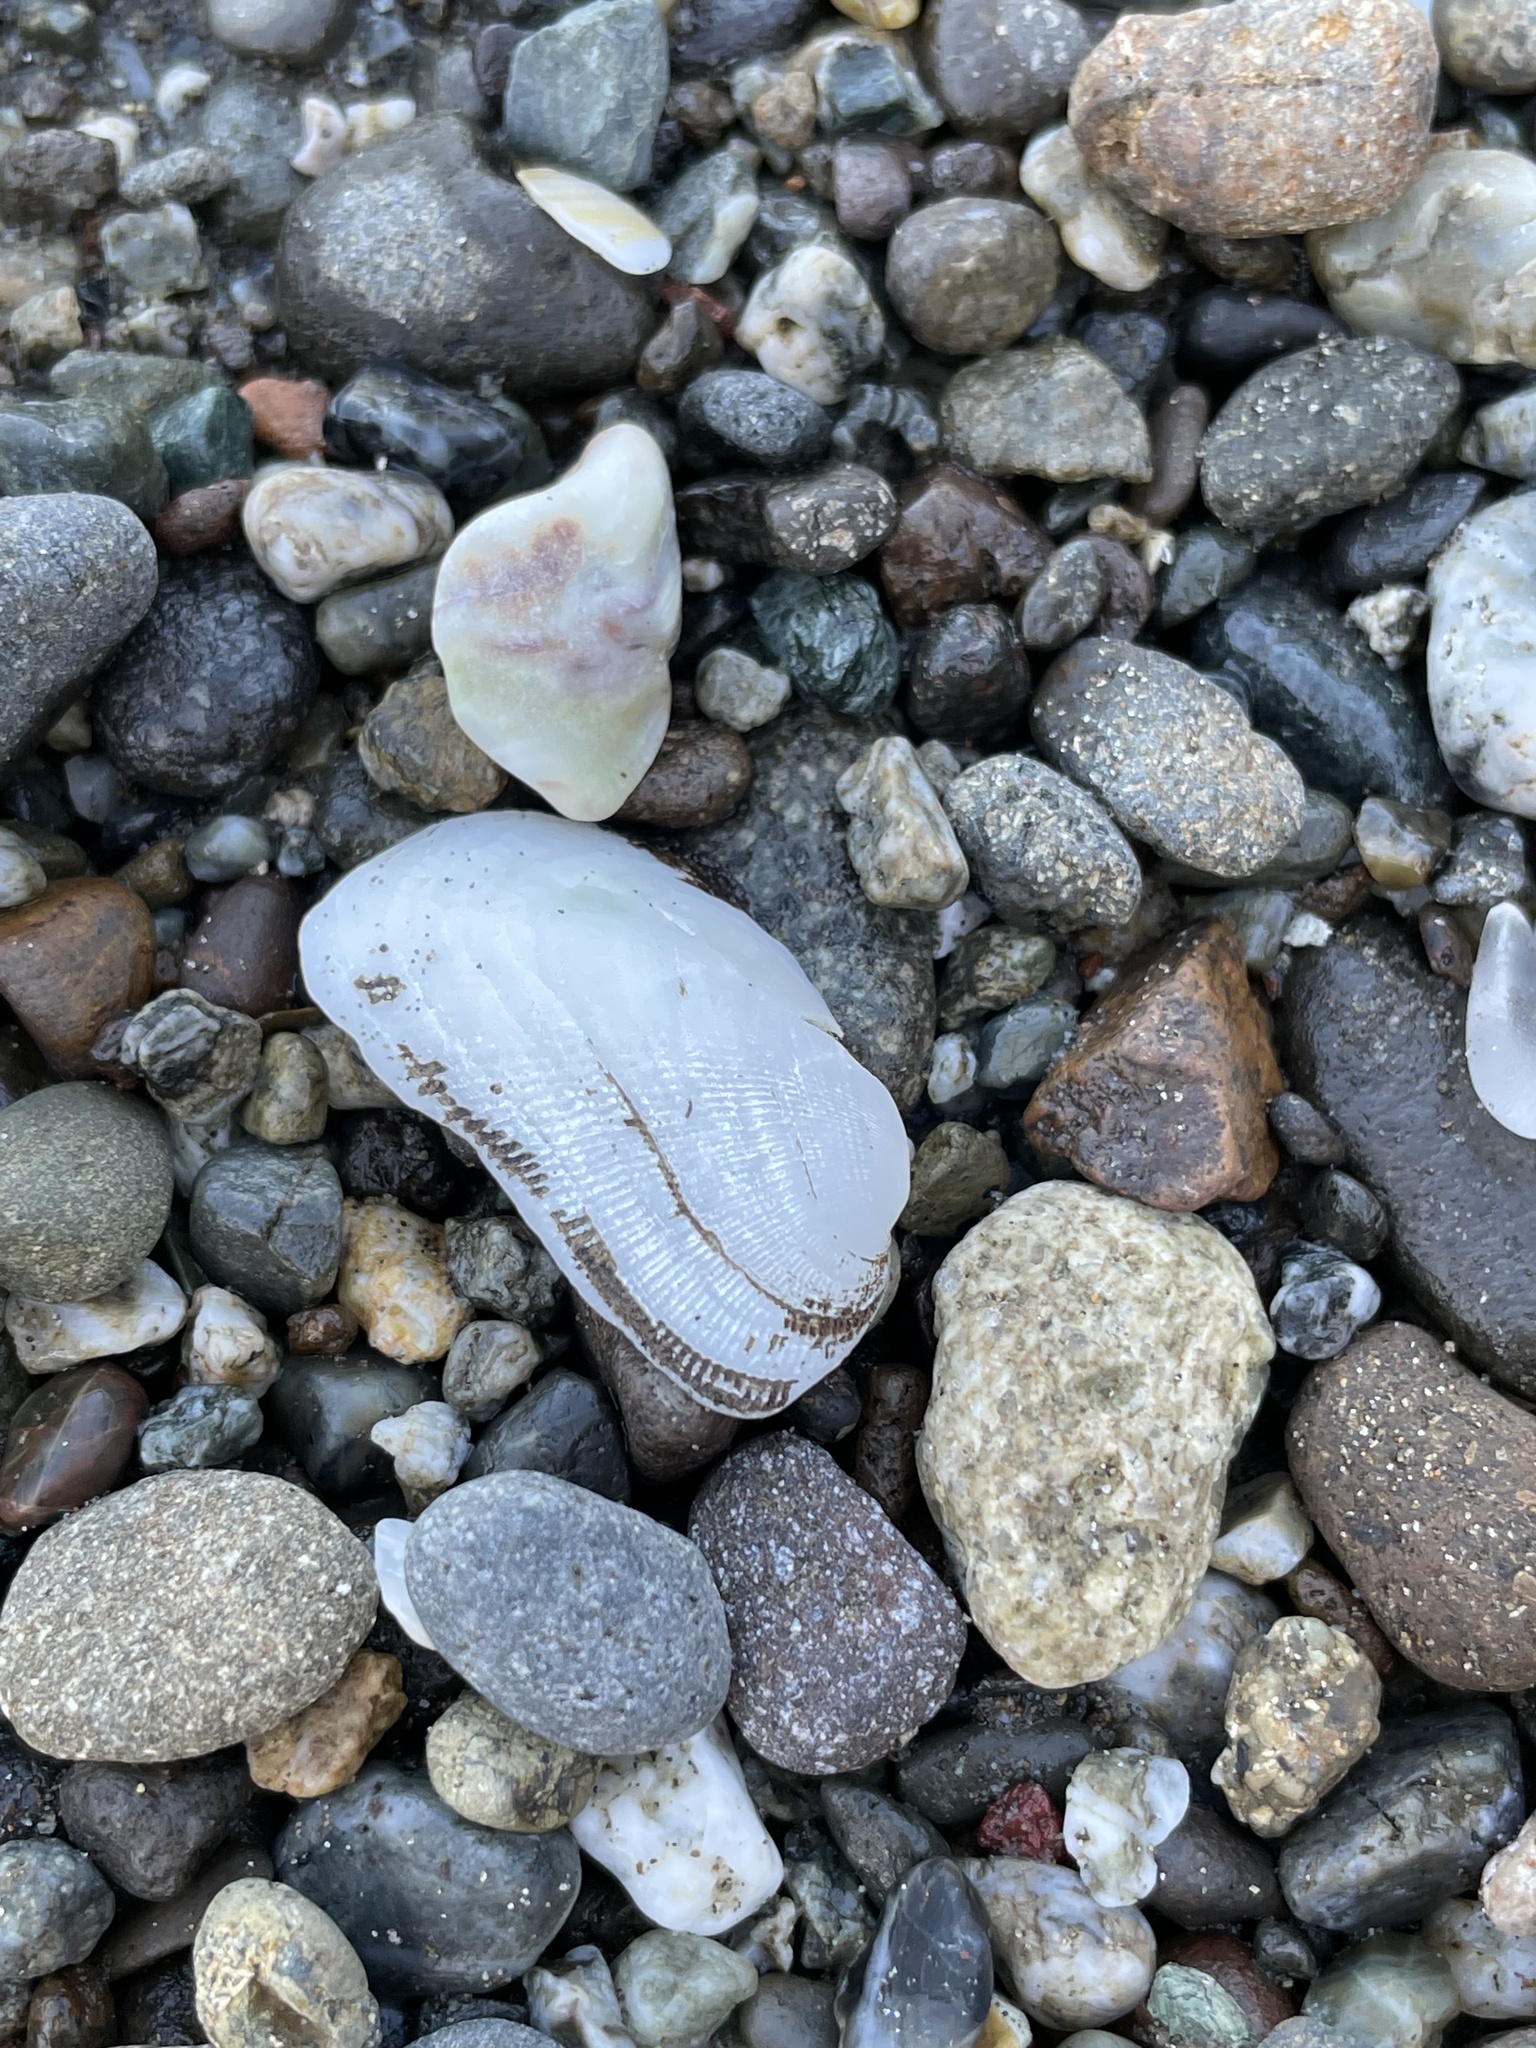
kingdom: Animalia
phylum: Mollusca
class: Bivalvia
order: Arcida
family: Arcidae
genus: Barbatia
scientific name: Barbatia virescens
